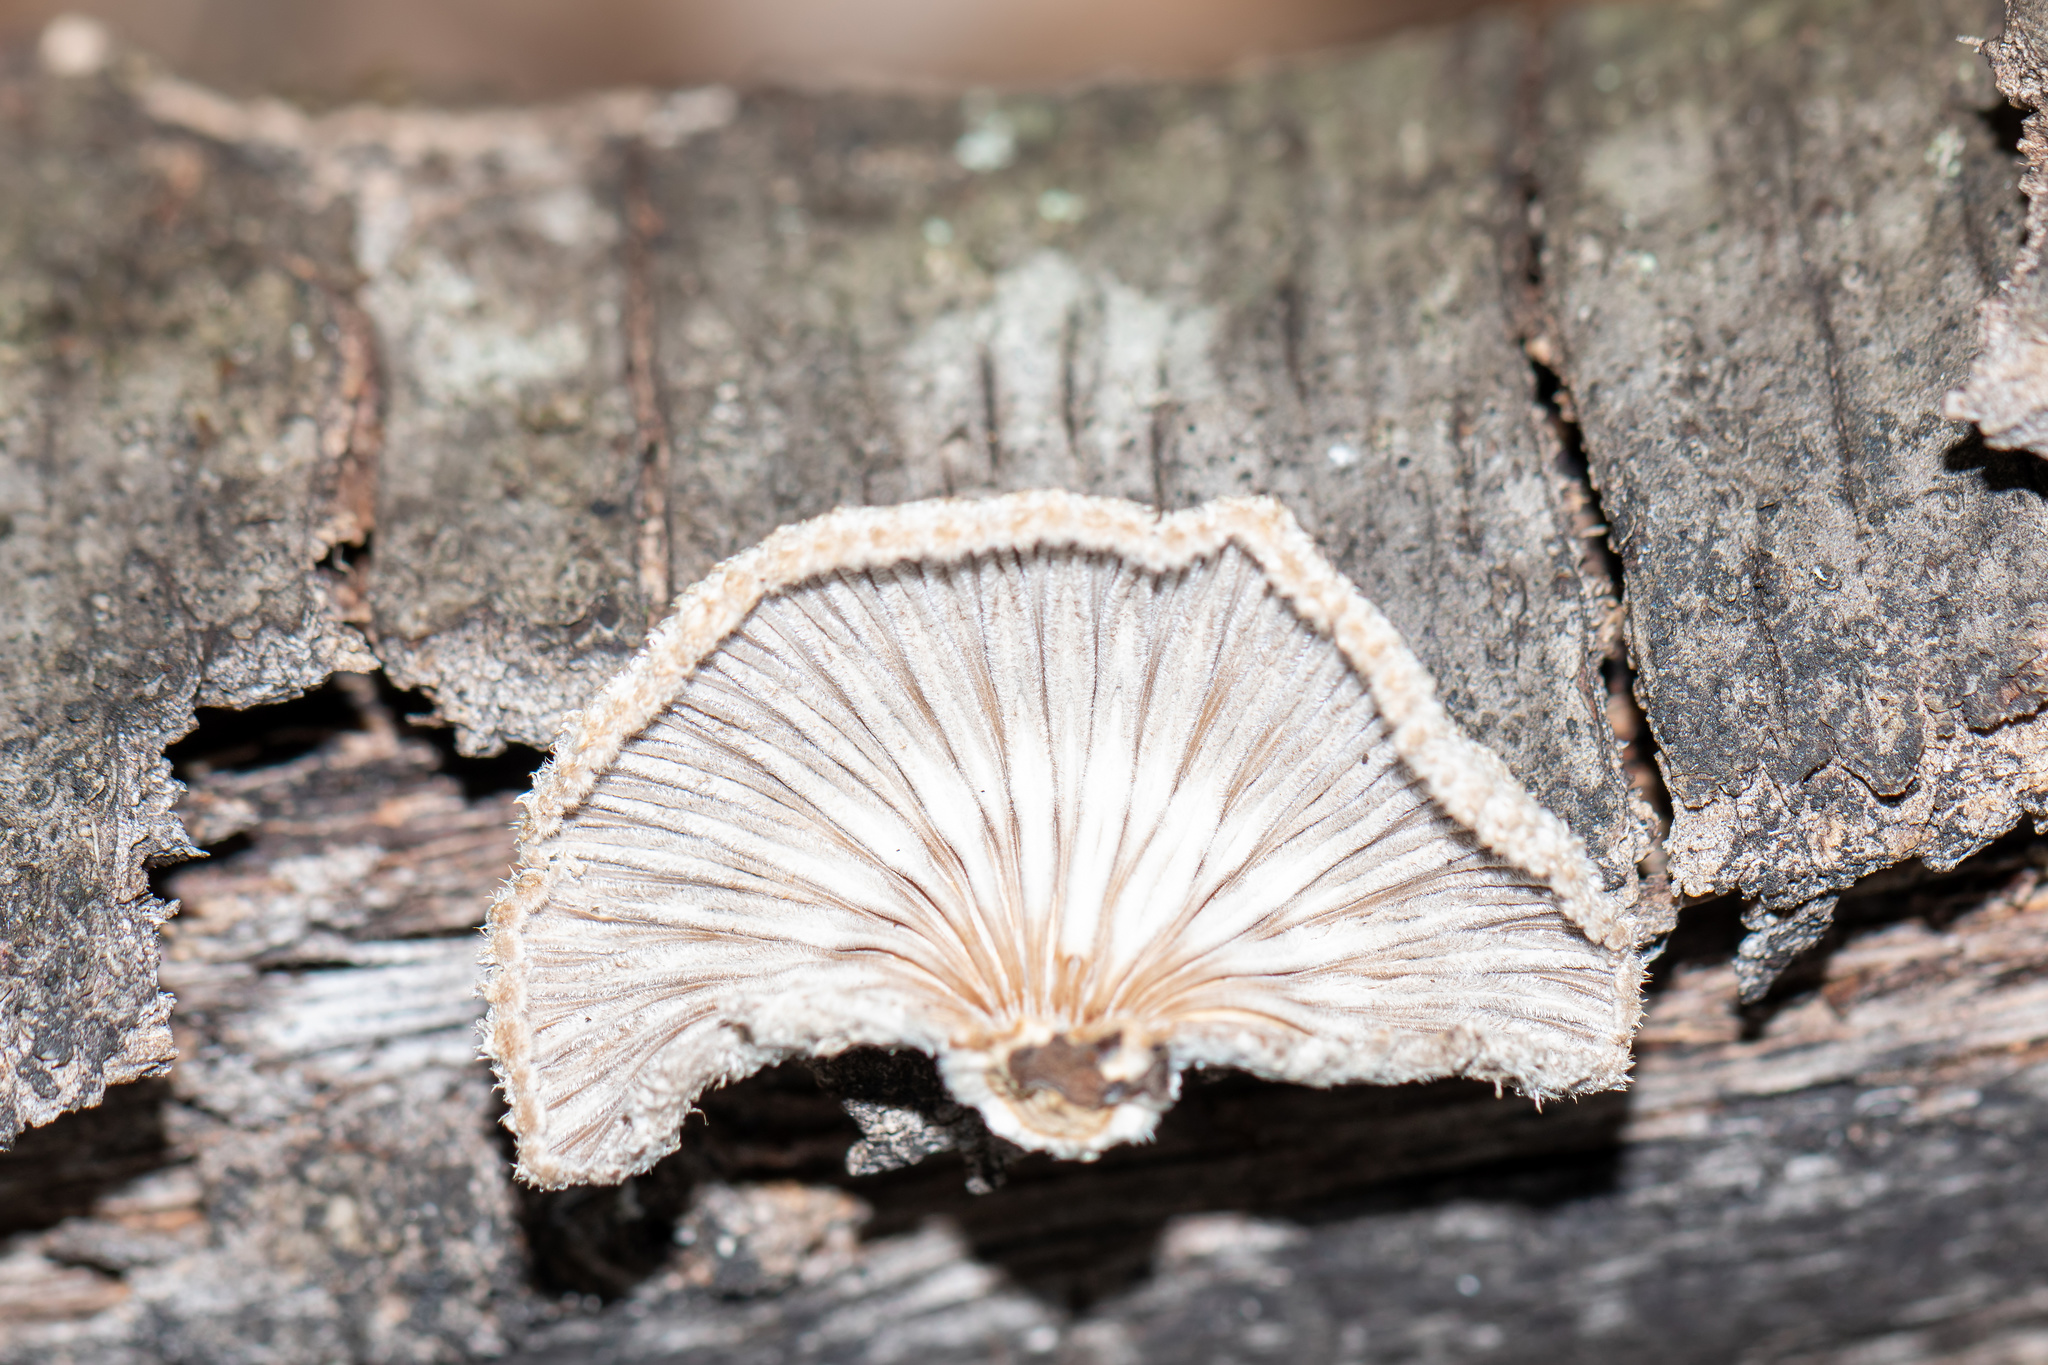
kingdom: Fungi
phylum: Basidiomycota
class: Agaricomycetes
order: Agaricales
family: Schizophyllaceae
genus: Schizophyllum
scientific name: Schizophyllum commune
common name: Common porecrust
